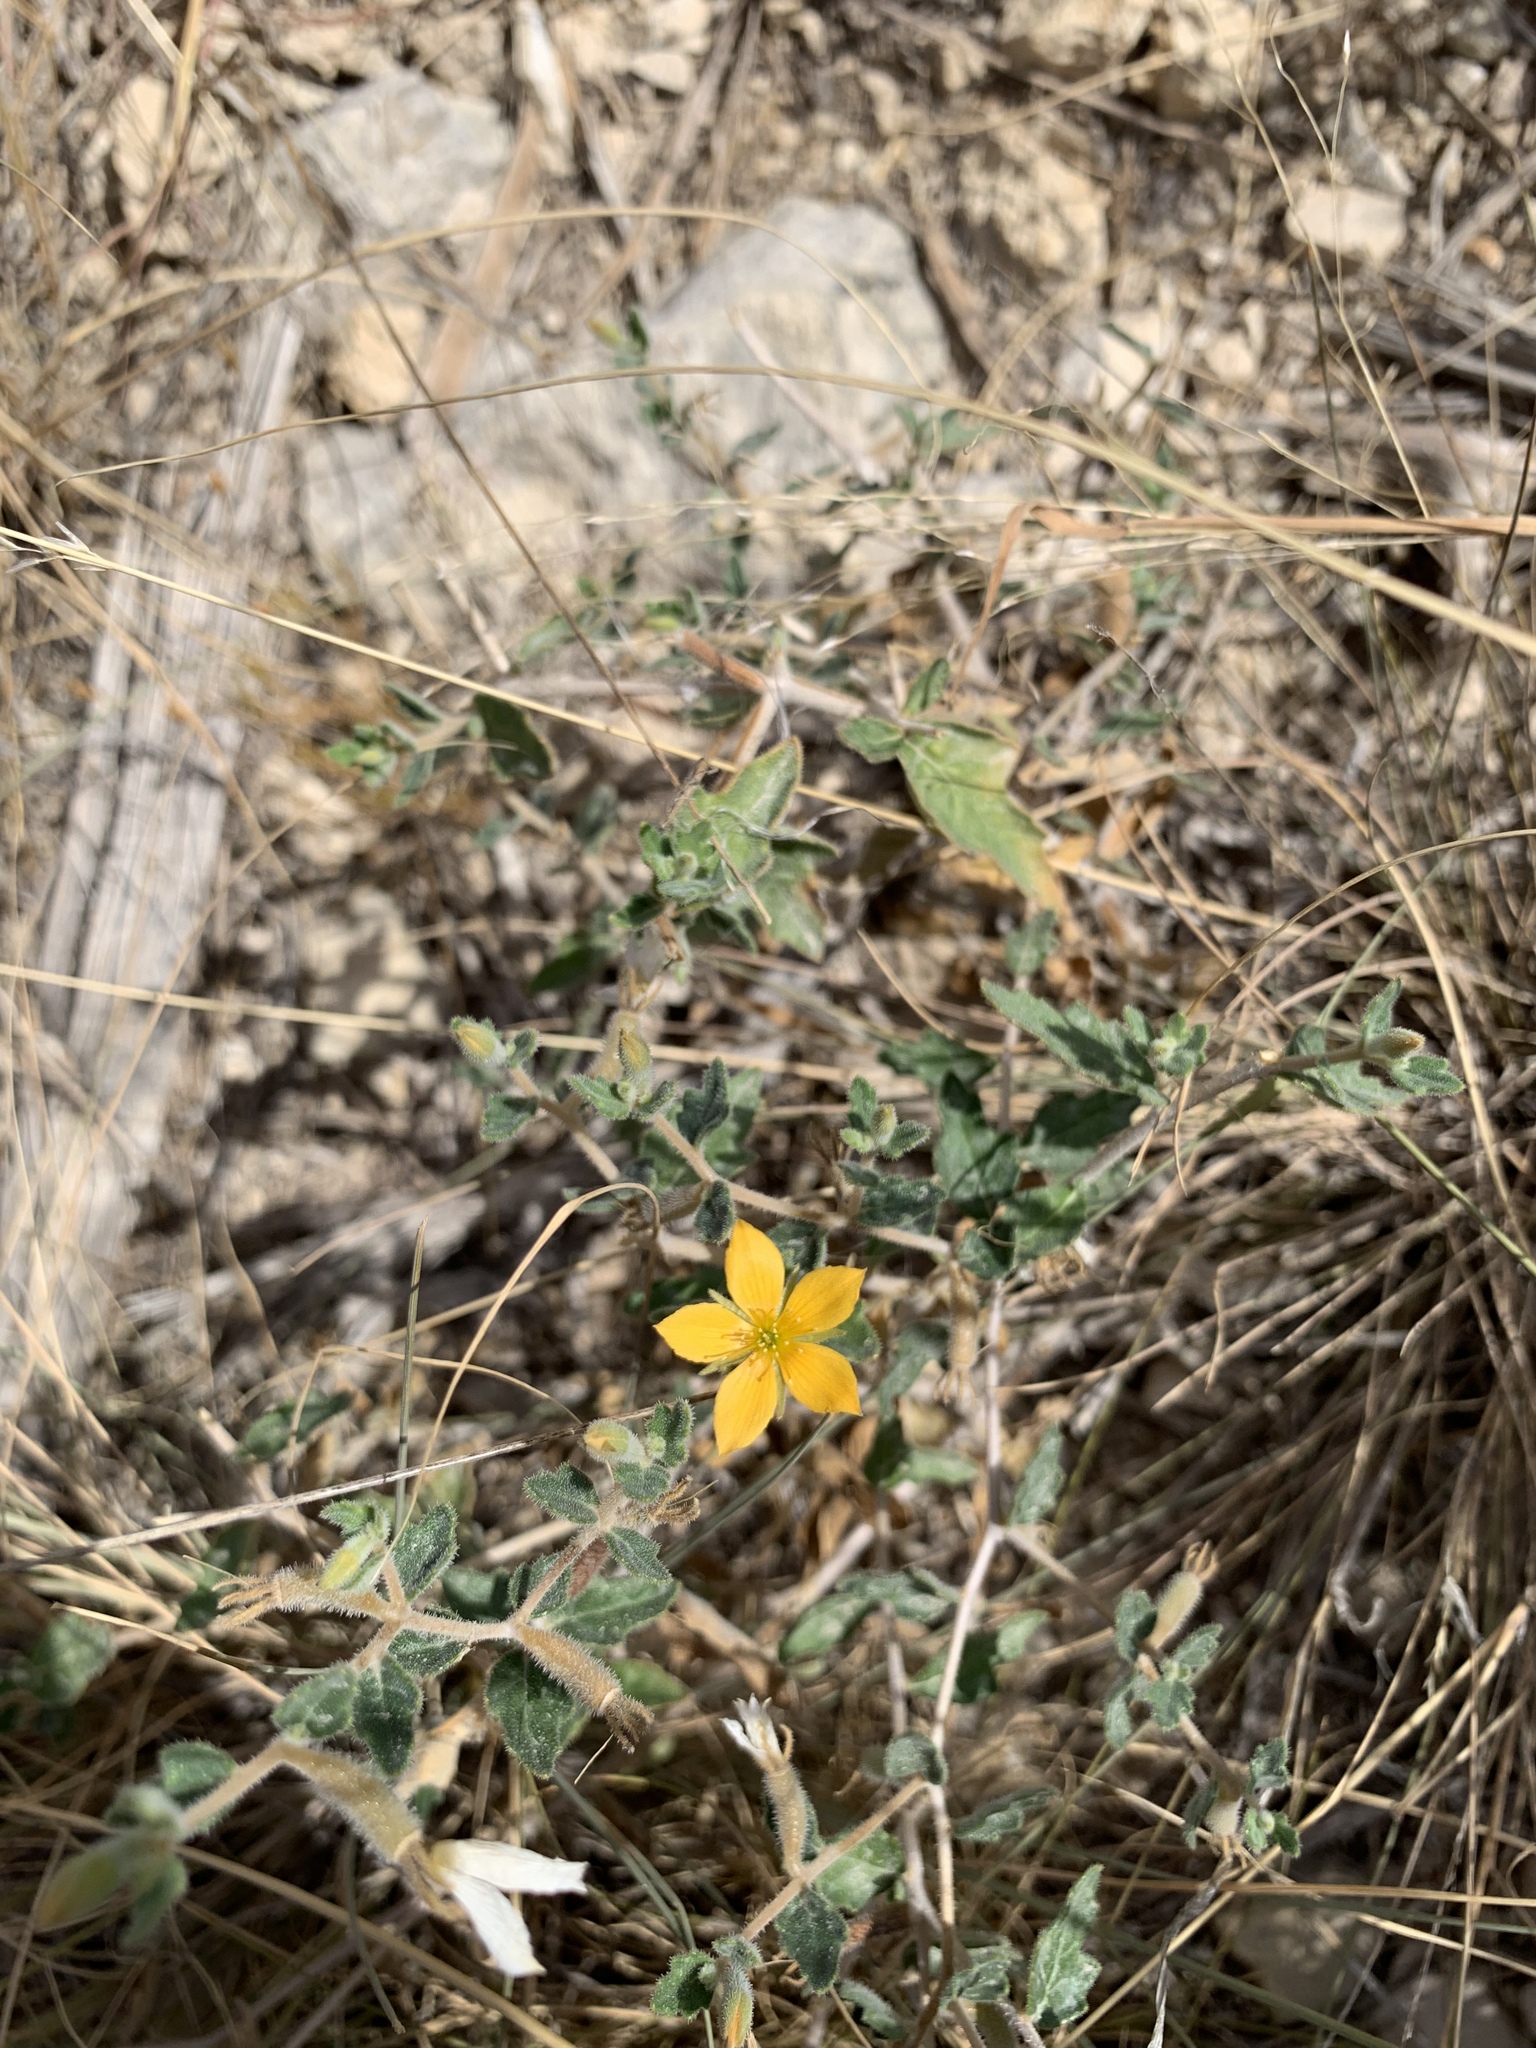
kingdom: Plantae
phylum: Tracheophyta
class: Magnoliopsida
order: Cornales
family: Loasaceae
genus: Mentzelia
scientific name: Mentzelia oligosperma
